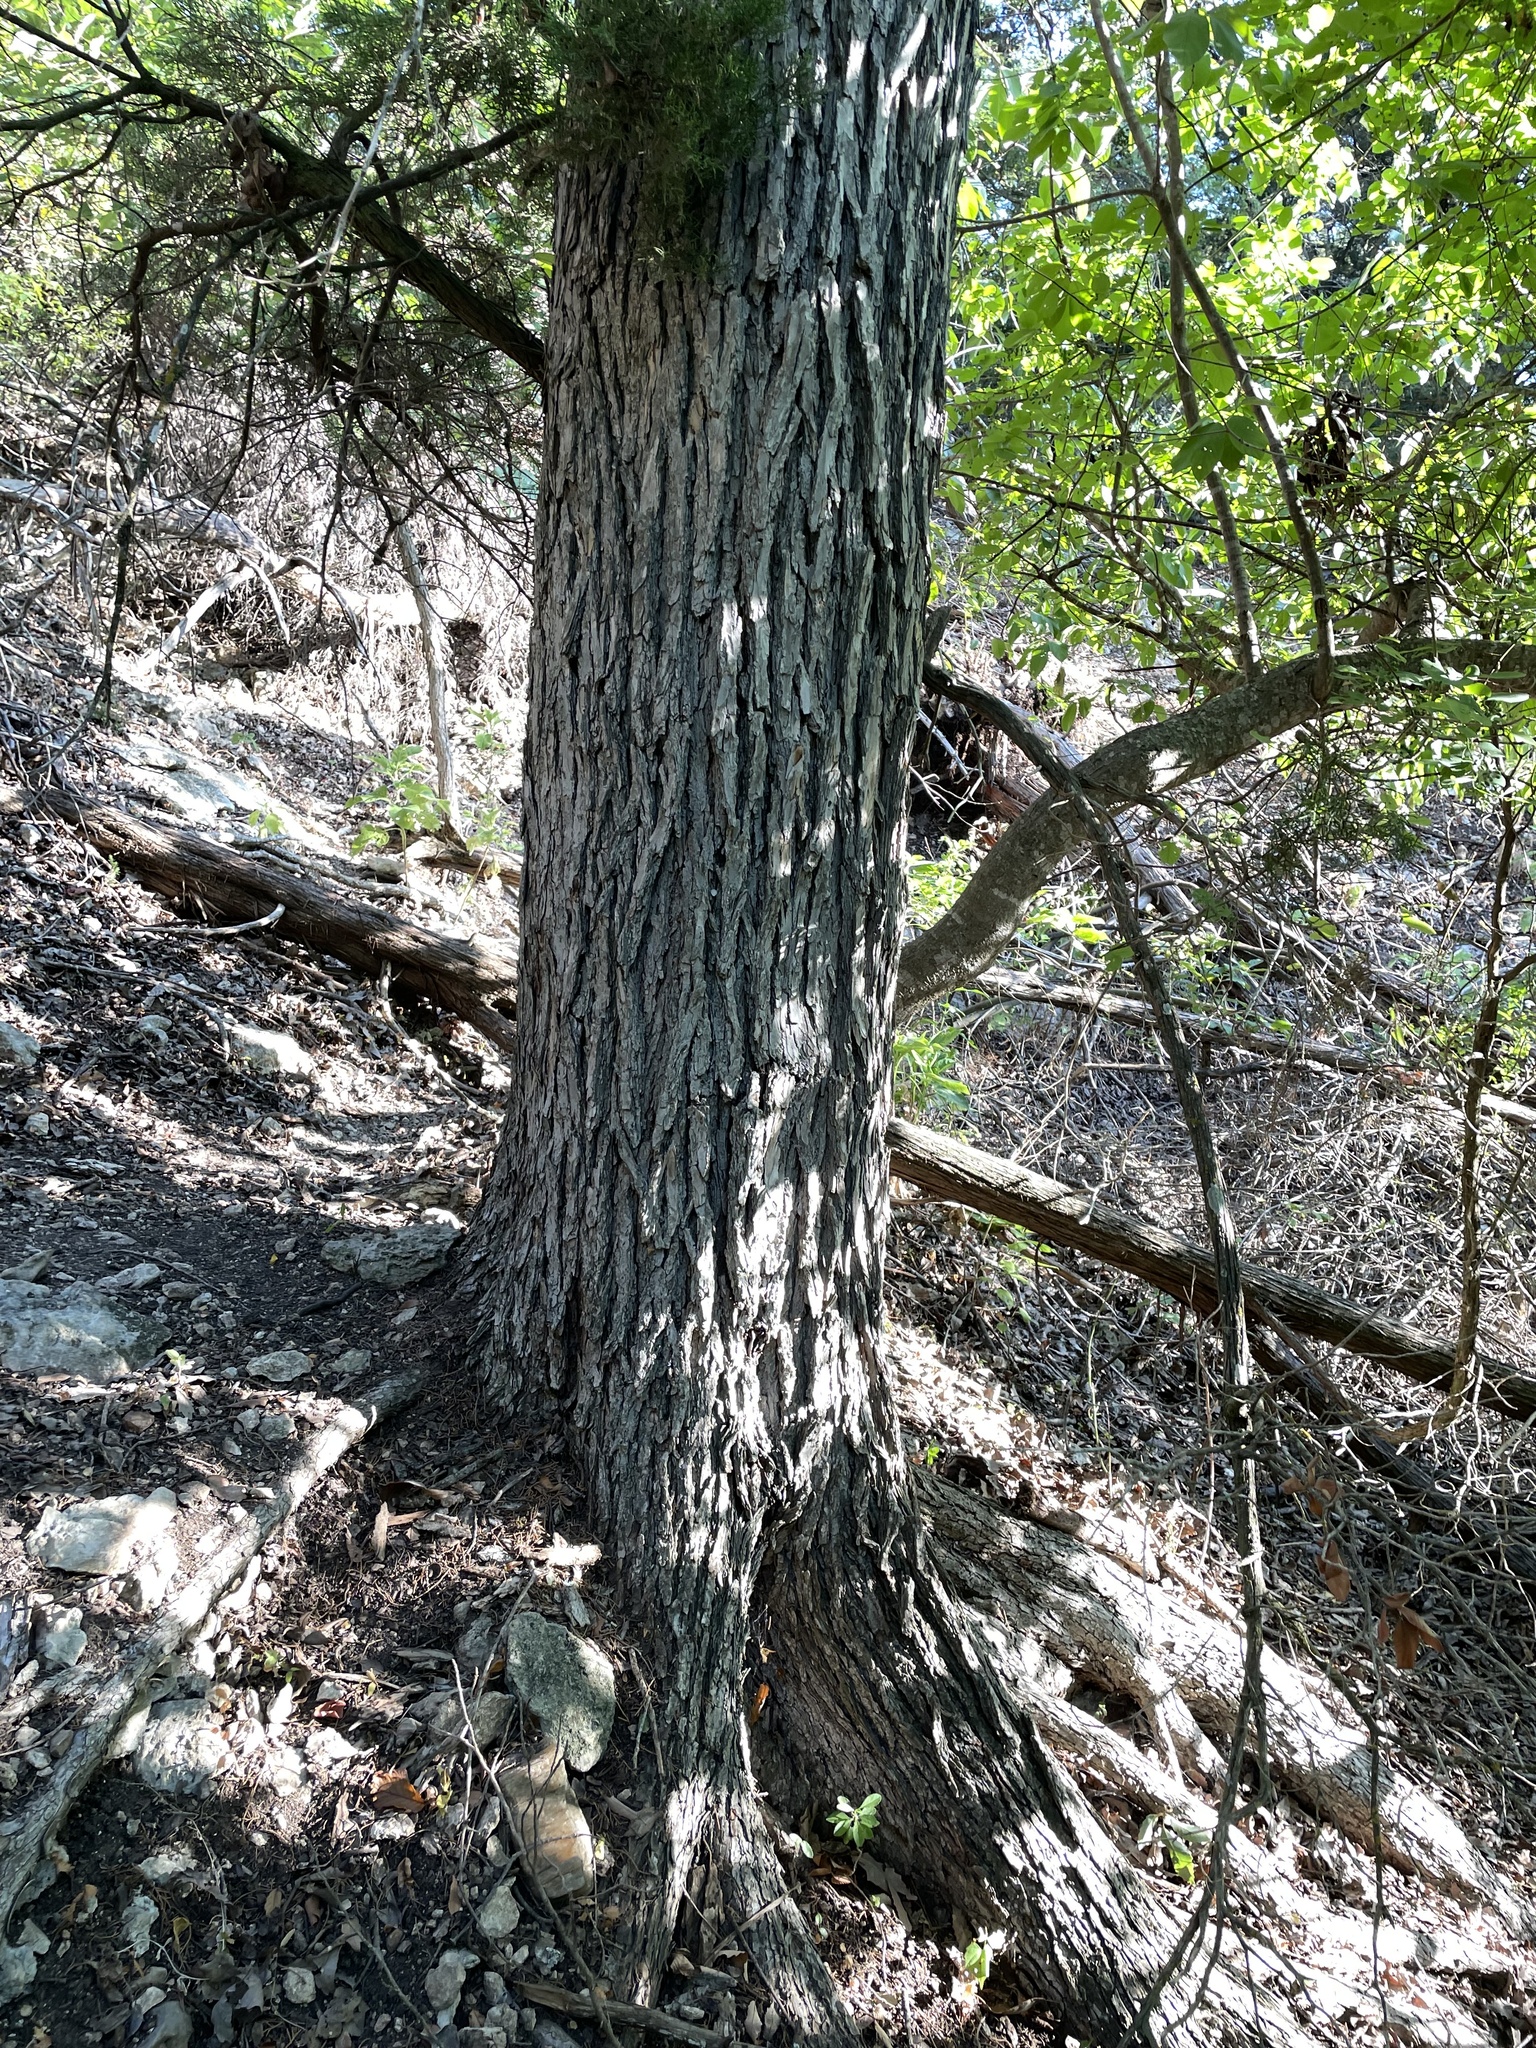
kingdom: Plantae
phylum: Tracheophyta
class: Magnoliopsida
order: Rosales
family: Ulmaceae
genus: Ulmus
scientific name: Ulmus crassifolia
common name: Basket elm
